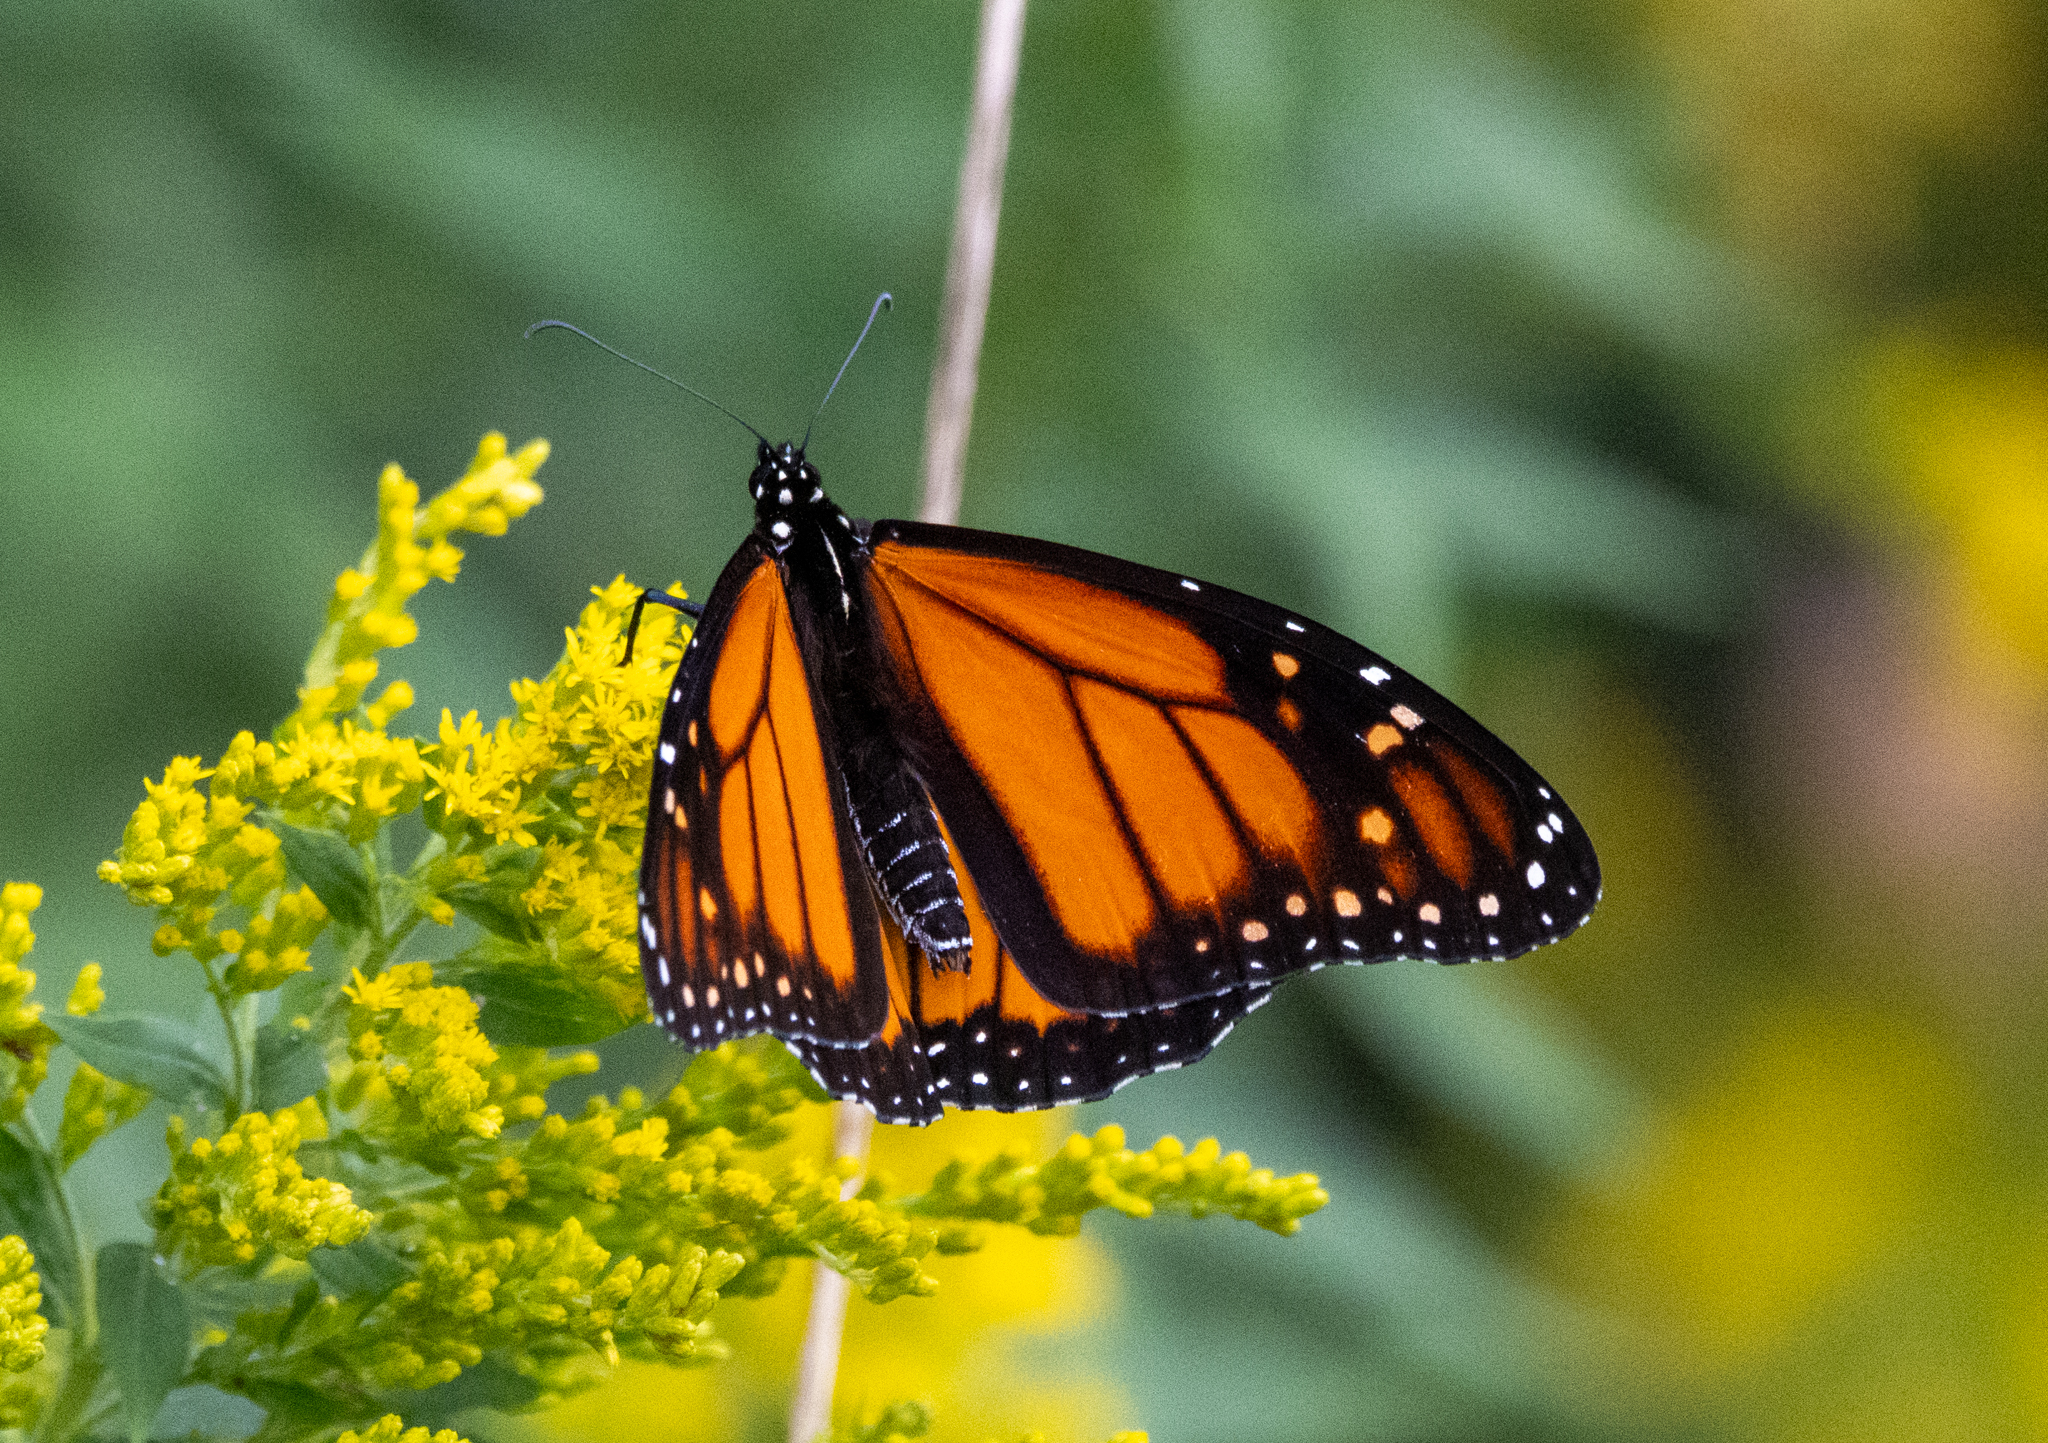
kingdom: Animalia
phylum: Arthropoda
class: Insecta
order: Lepidoptera
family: Nymphalidae
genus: Danaus
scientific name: Danaus plexippus
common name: Monarch
